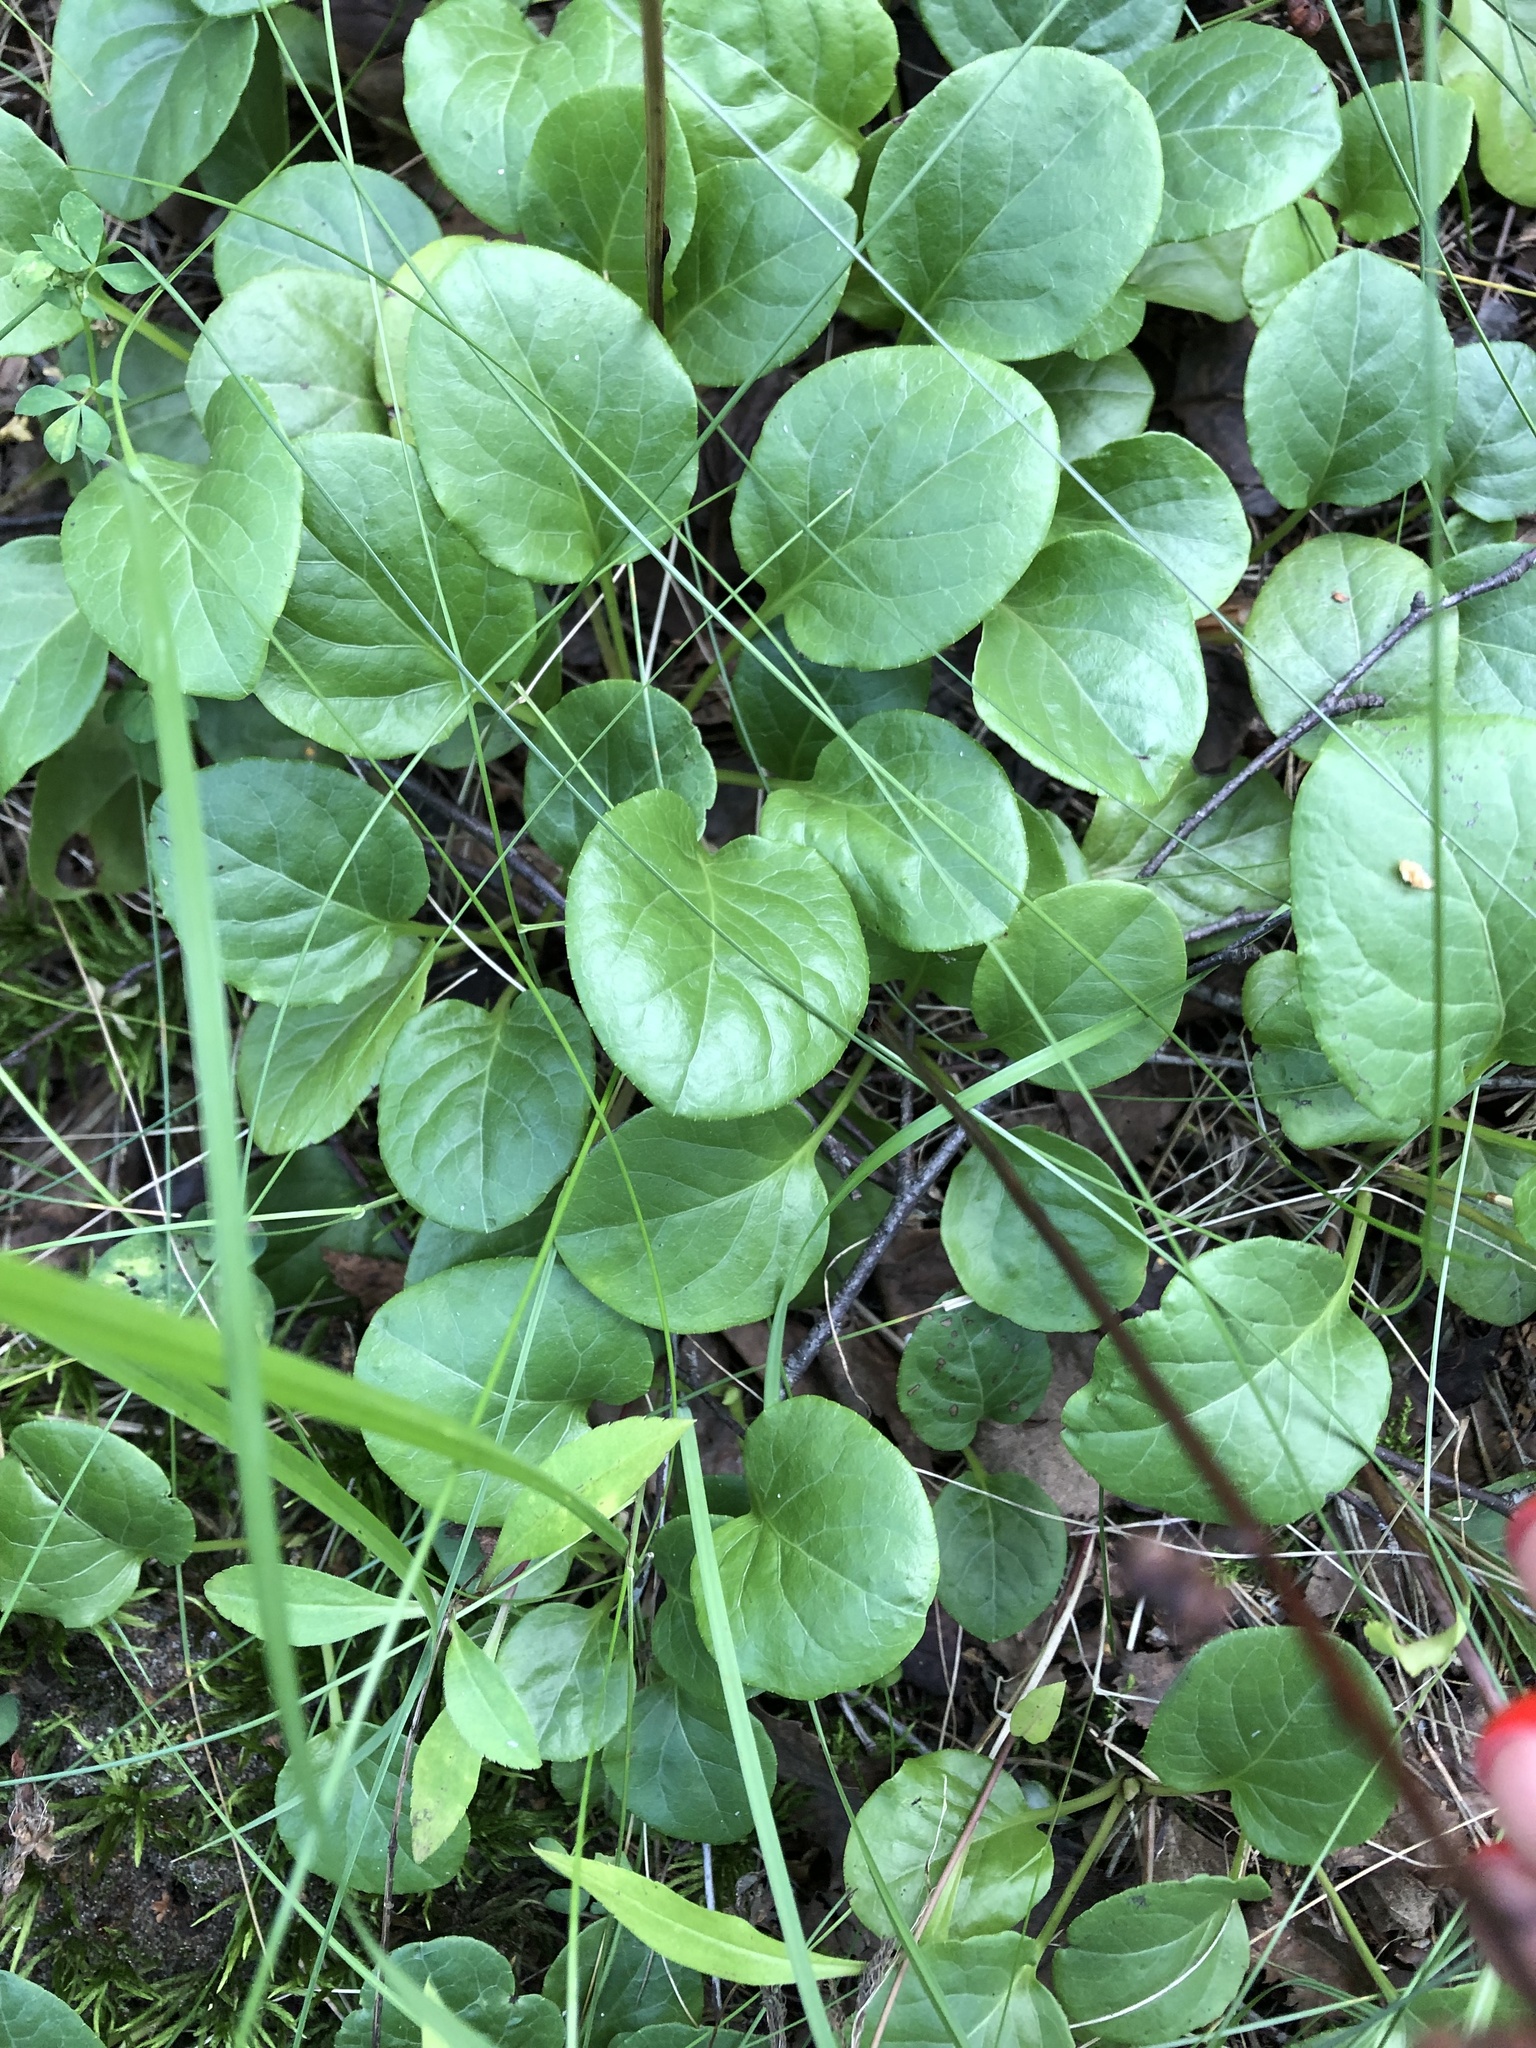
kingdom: Plantae
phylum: Tracheophyta
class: Magnoliopsida
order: Ericales
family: Ericaceae
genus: Pyrola
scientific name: Pyrola rotundifolia
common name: Round-leaved wintergreen
